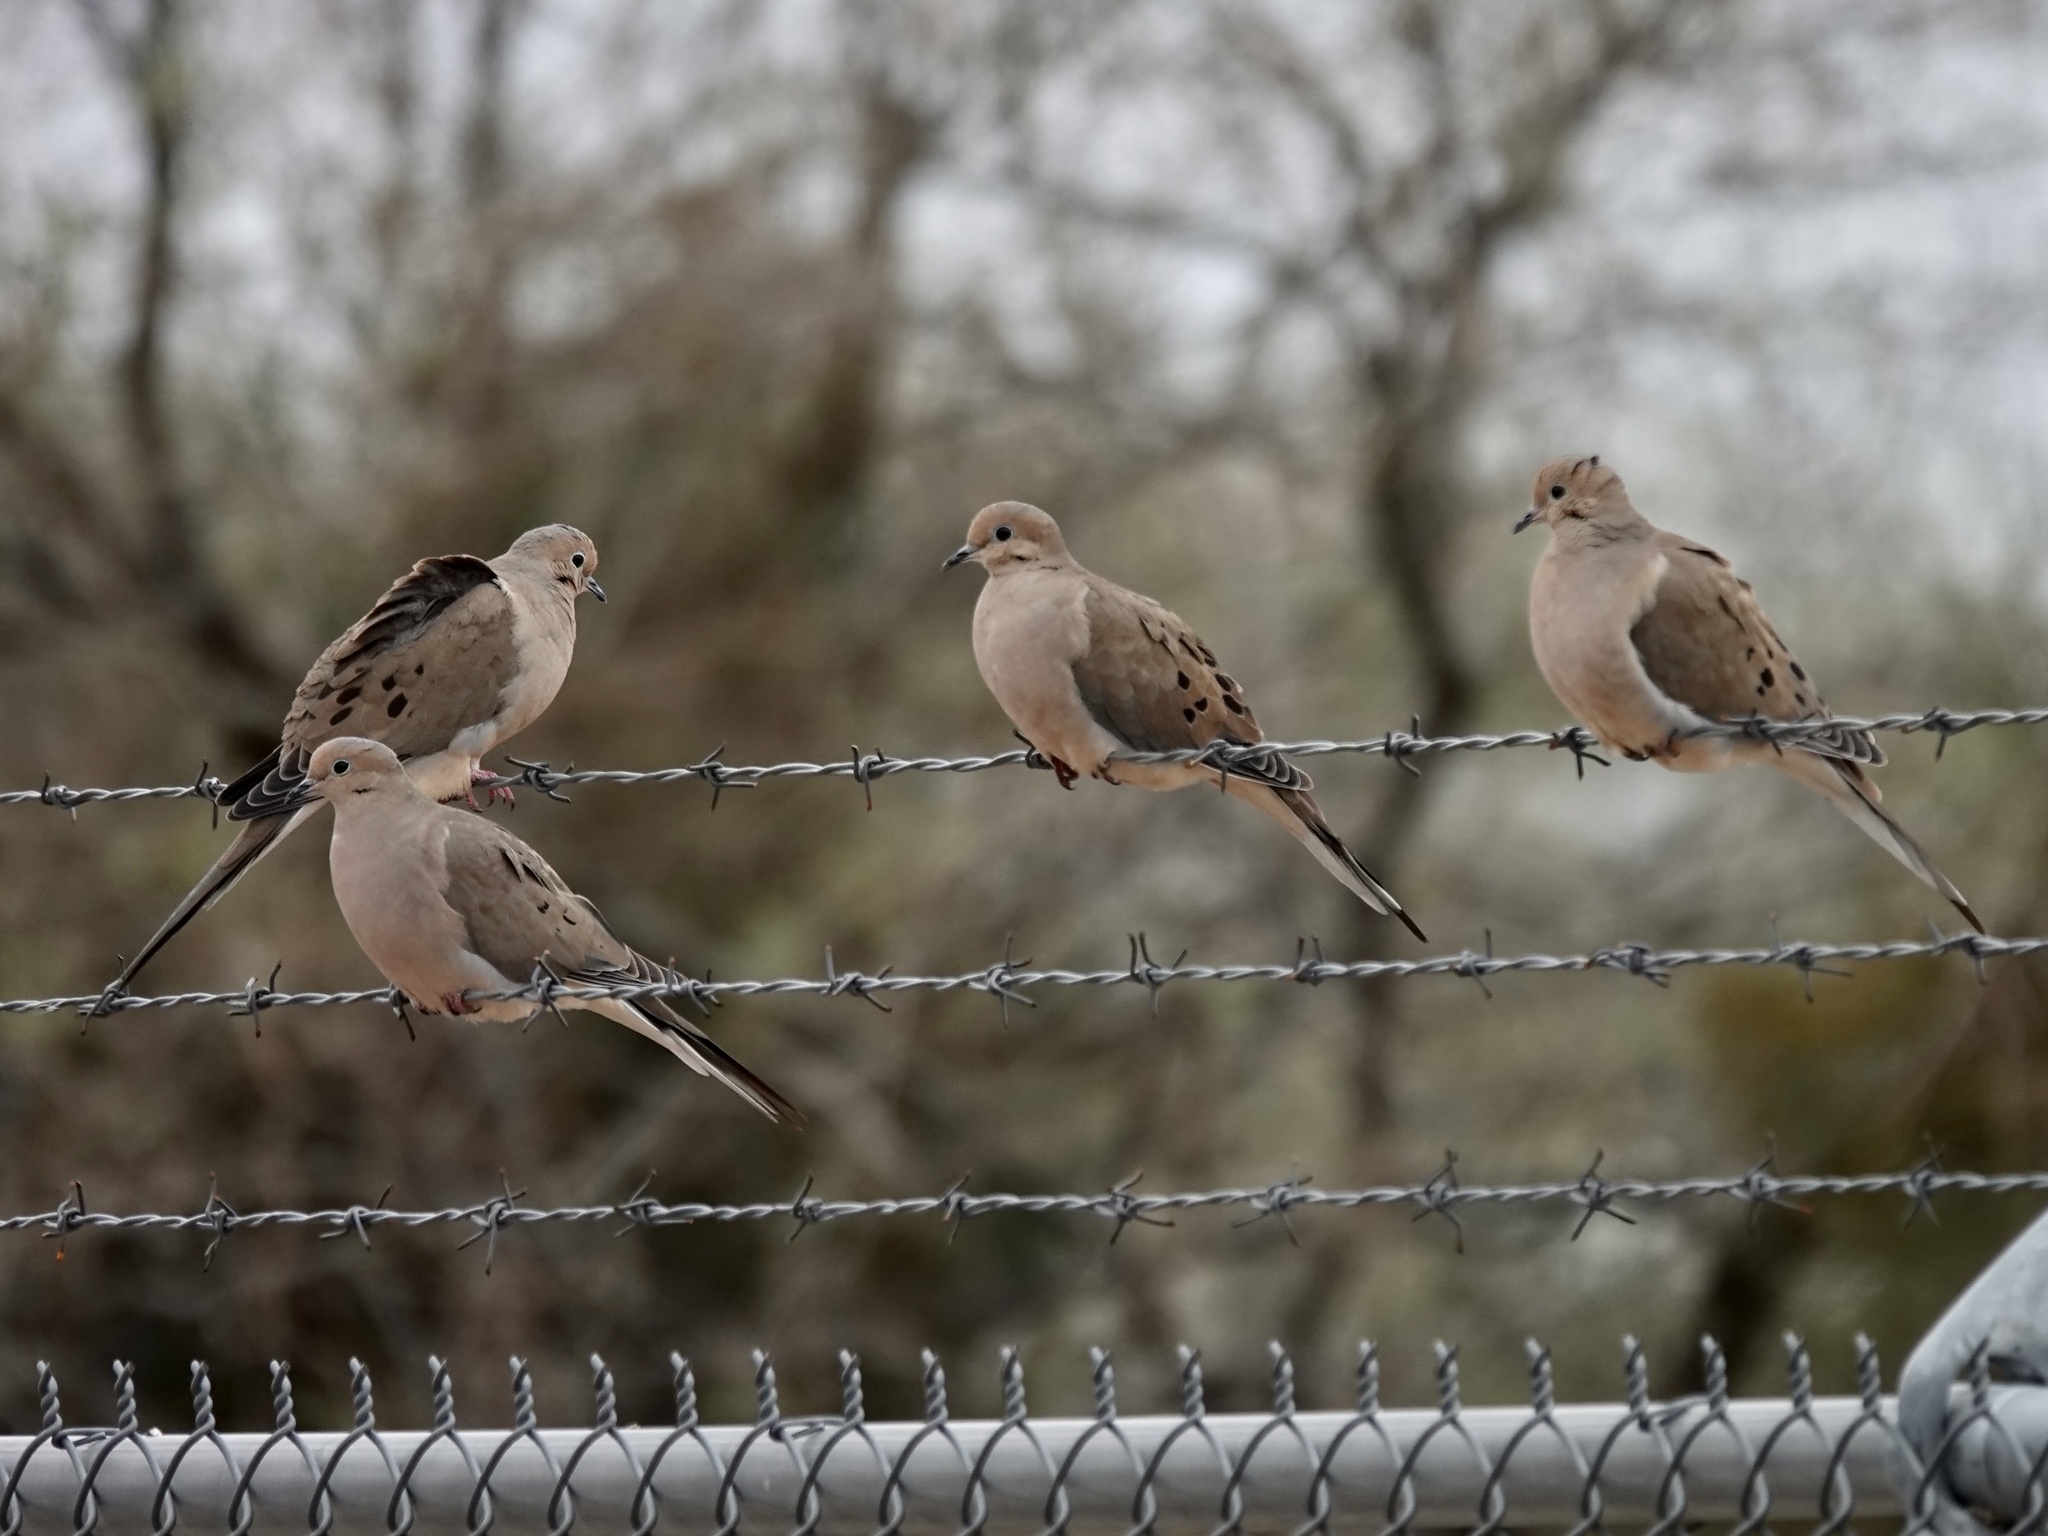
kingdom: Animalia
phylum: Chordata
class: Aves
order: Columbiformes
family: Columbidae
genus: Zenaida
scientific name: Zenaida macroura
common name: Mourning dove
